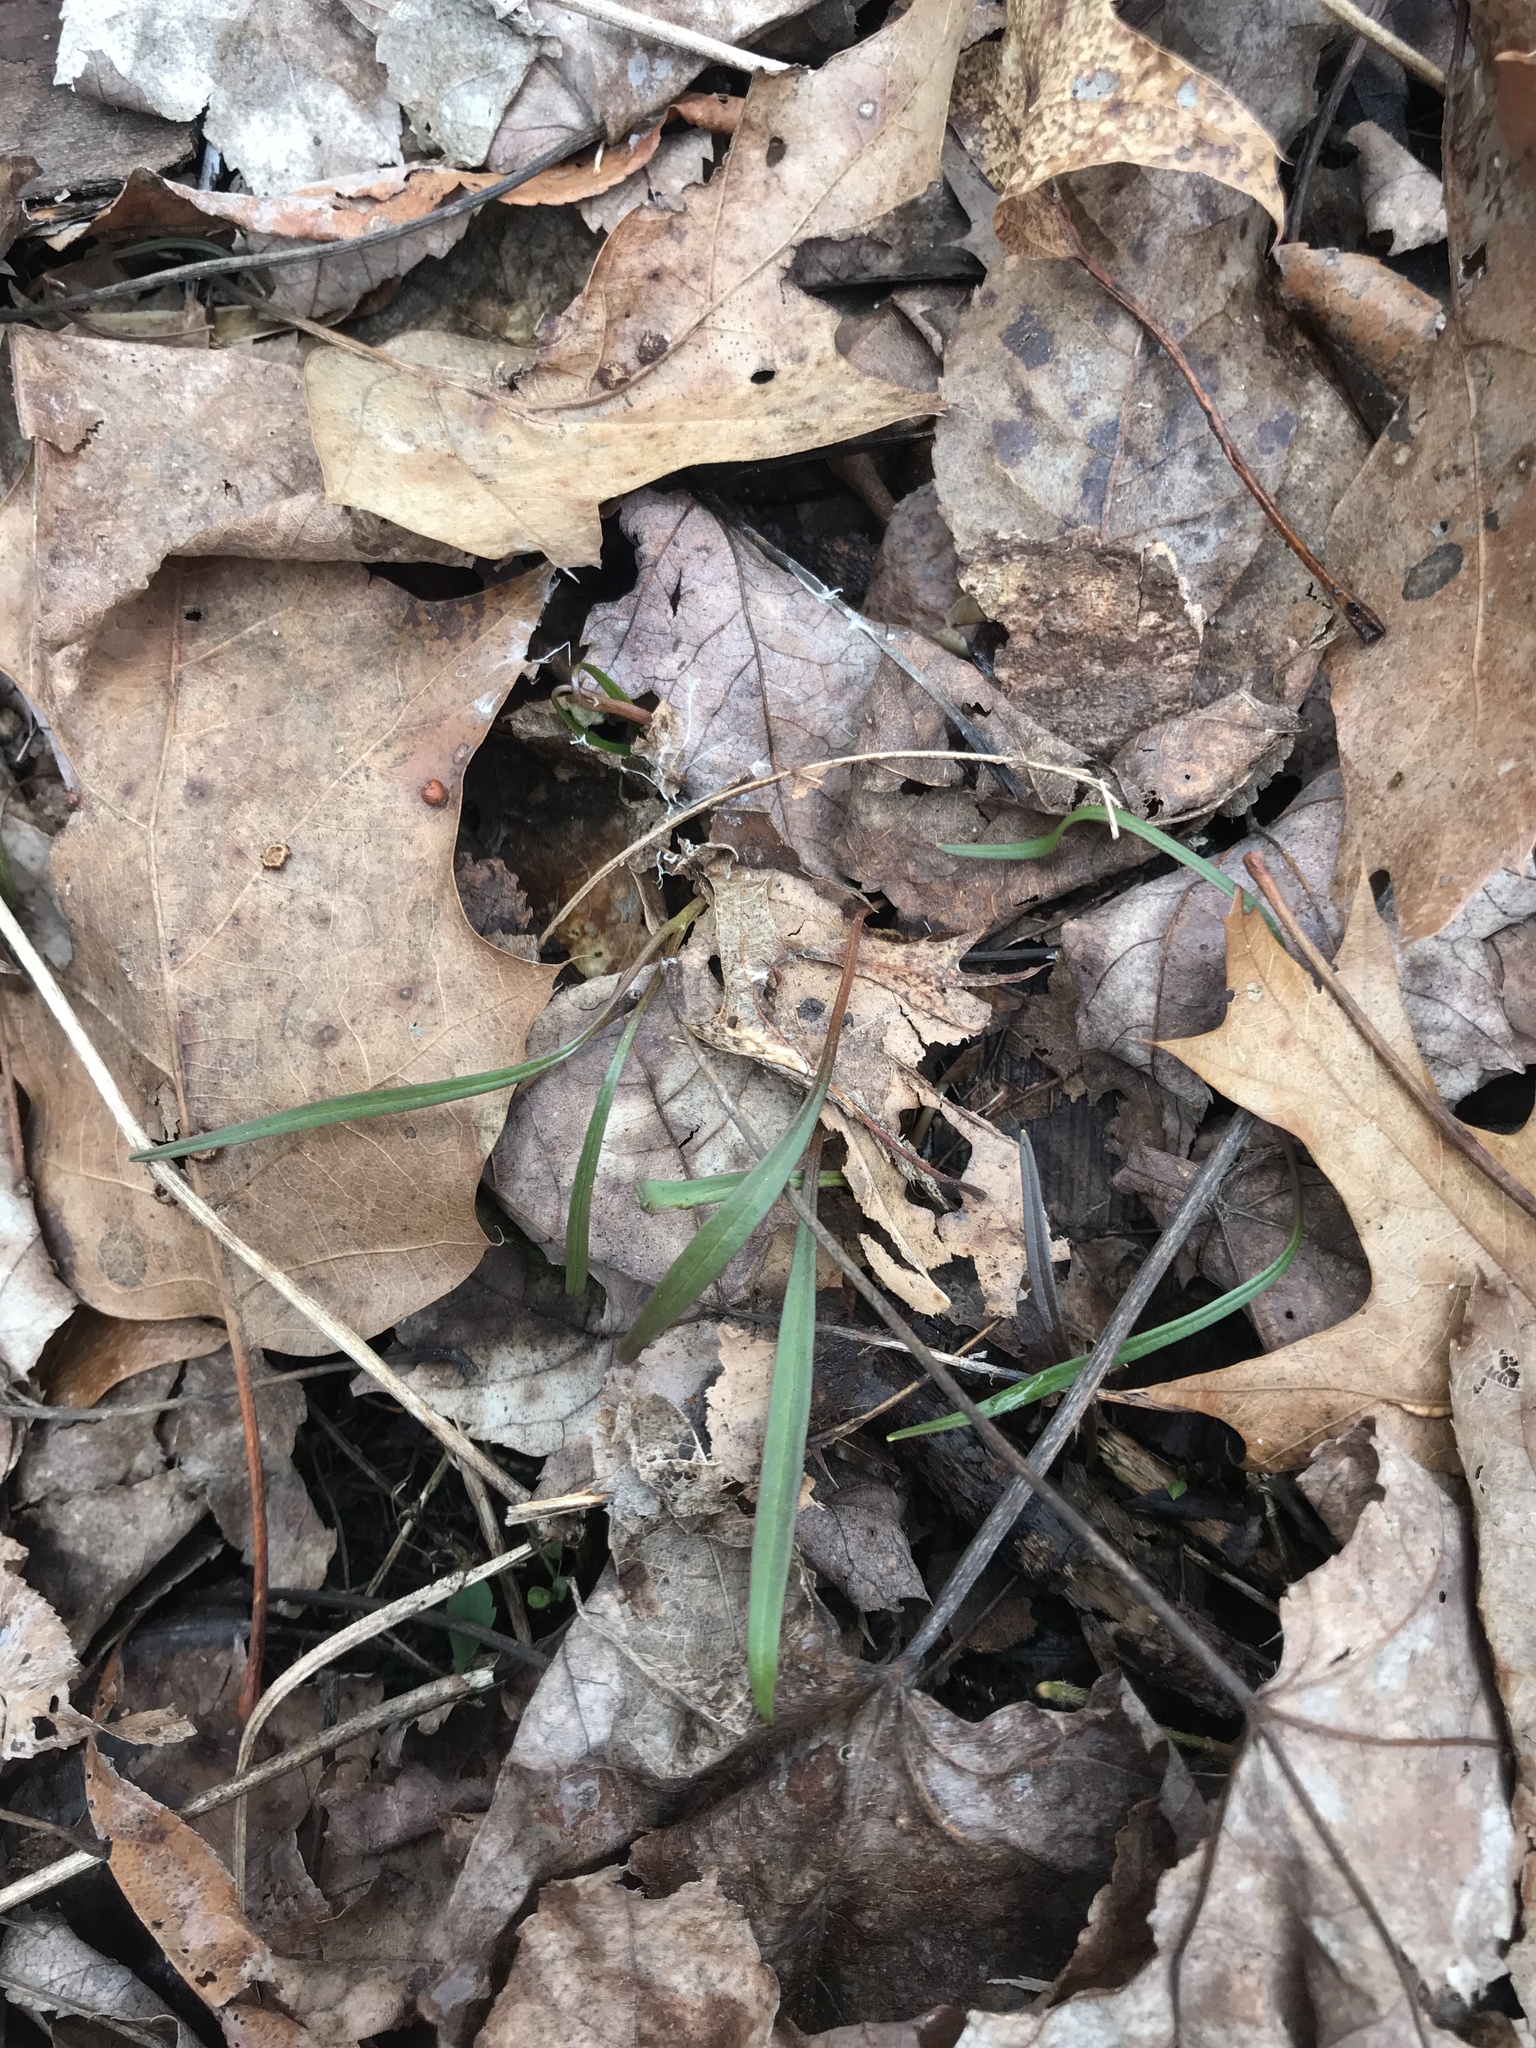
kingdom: Plantae
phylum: Tracheophyta
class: Magnoliopsida
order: Caryophyllales
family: Montiaceae
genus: Claytonia
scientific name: Claytonia virginica
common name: Virginia springbeauty
